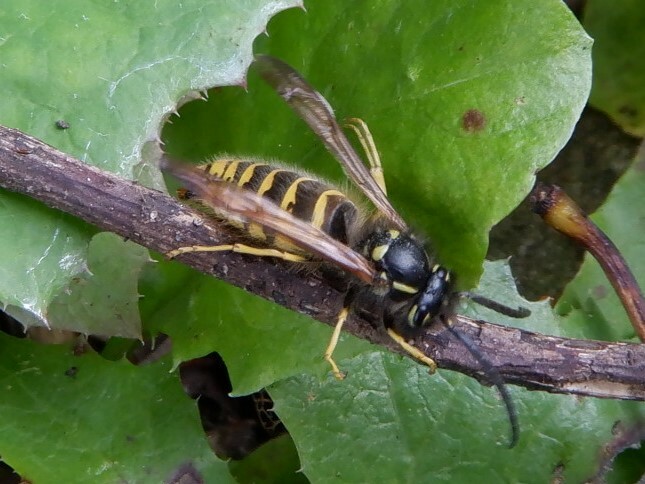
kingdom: Animalia
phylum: Arthropoda
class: Insecta
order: Hymenoptera
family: Vespidae
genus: Vespula
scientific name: Vespula vulgaris
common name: Common wasp
